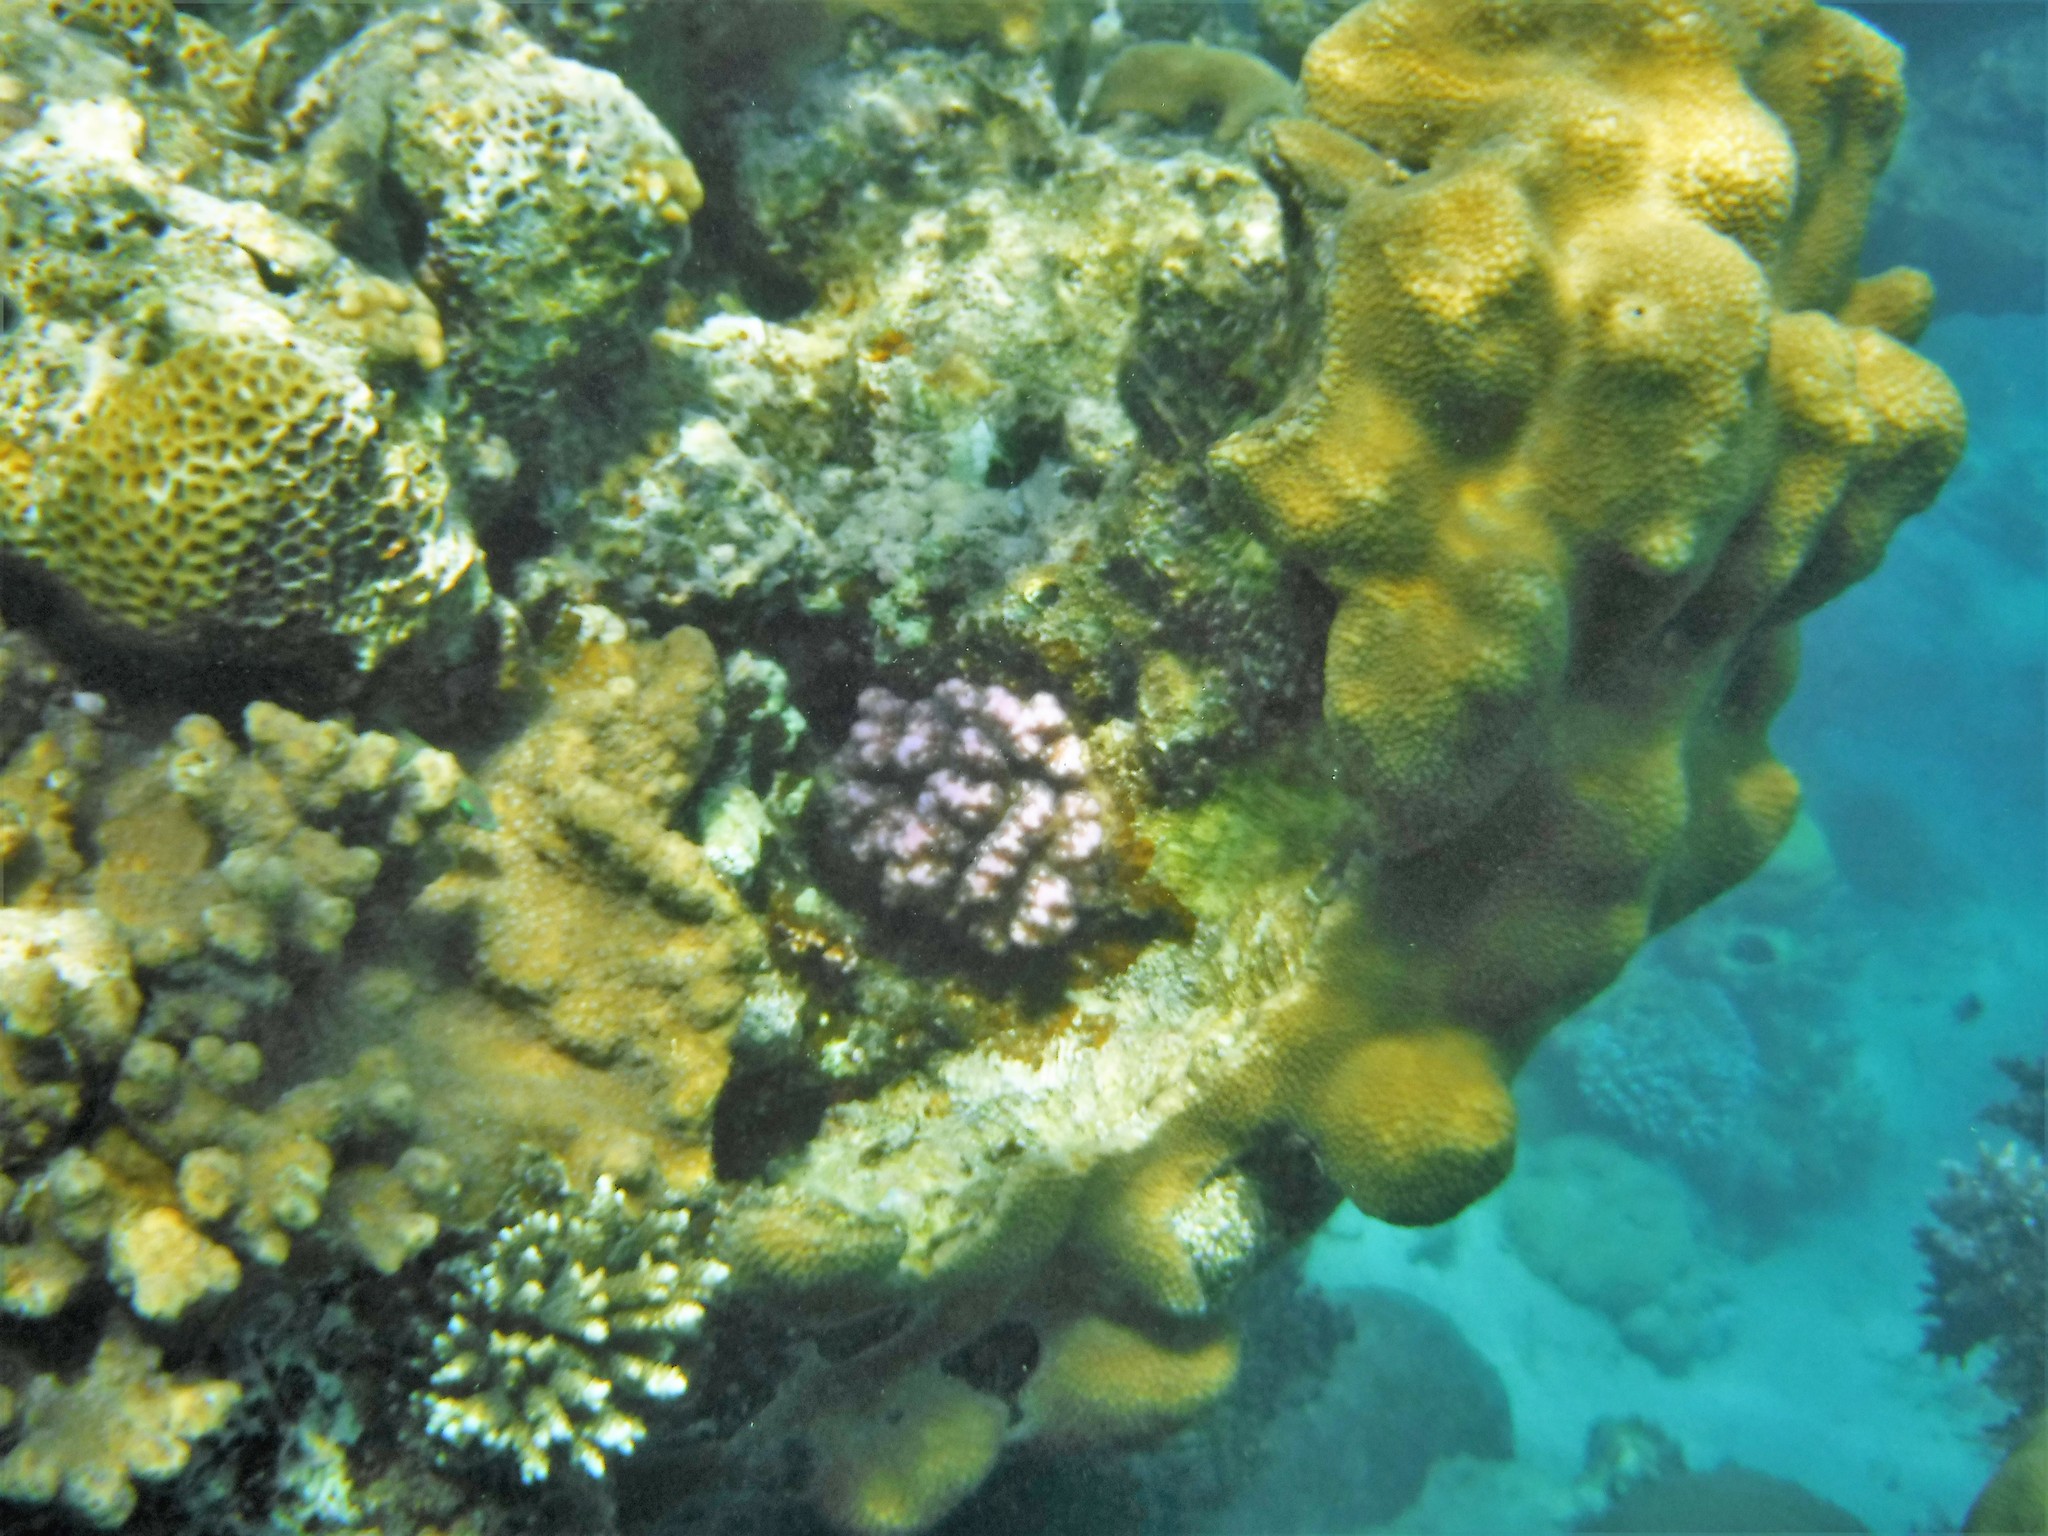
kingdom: Animalia
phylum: Cnidaria
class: Anthozoa
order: Scleractinia
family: Merulinidae
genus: Hydnophora
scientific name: Hydnophora microconos
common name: Spine coral
